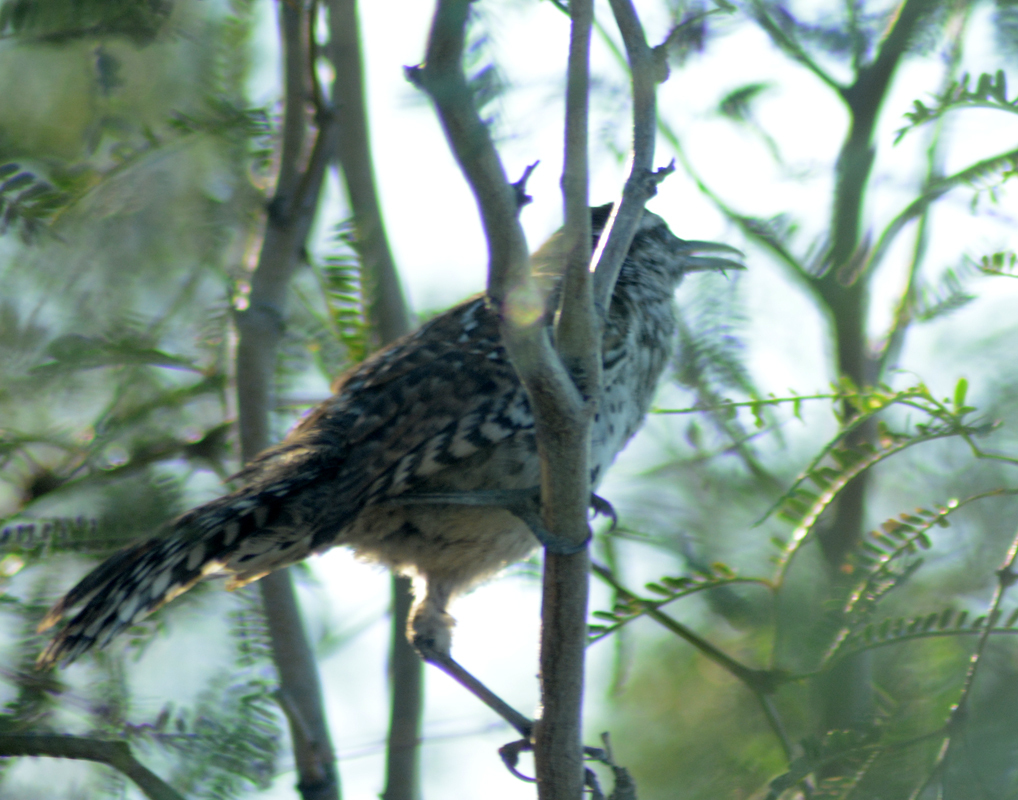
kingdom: Animalia
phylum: Chordata
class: Aves
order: Passeriformes
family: Troglodytidae
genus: Campylorhynchus
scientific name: Campylorhynchus brunneicapillus
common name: Cactus wren
